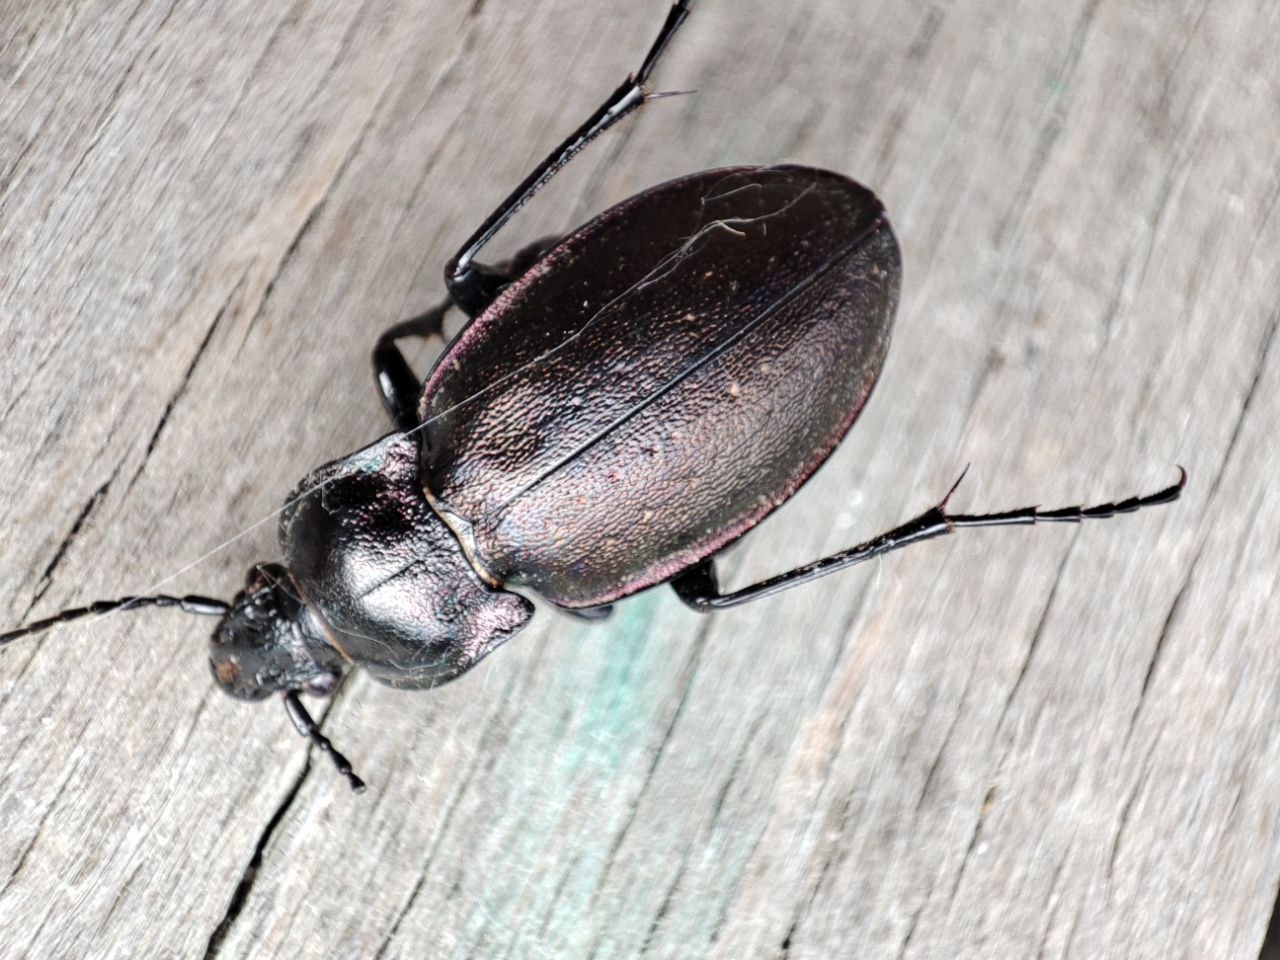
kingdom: Animalia
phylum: Arthropoda
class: Insecta
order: Coleoptera
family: Carabidae
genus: Carabus
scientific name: Carabus nemoralis
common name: European ground beetle
